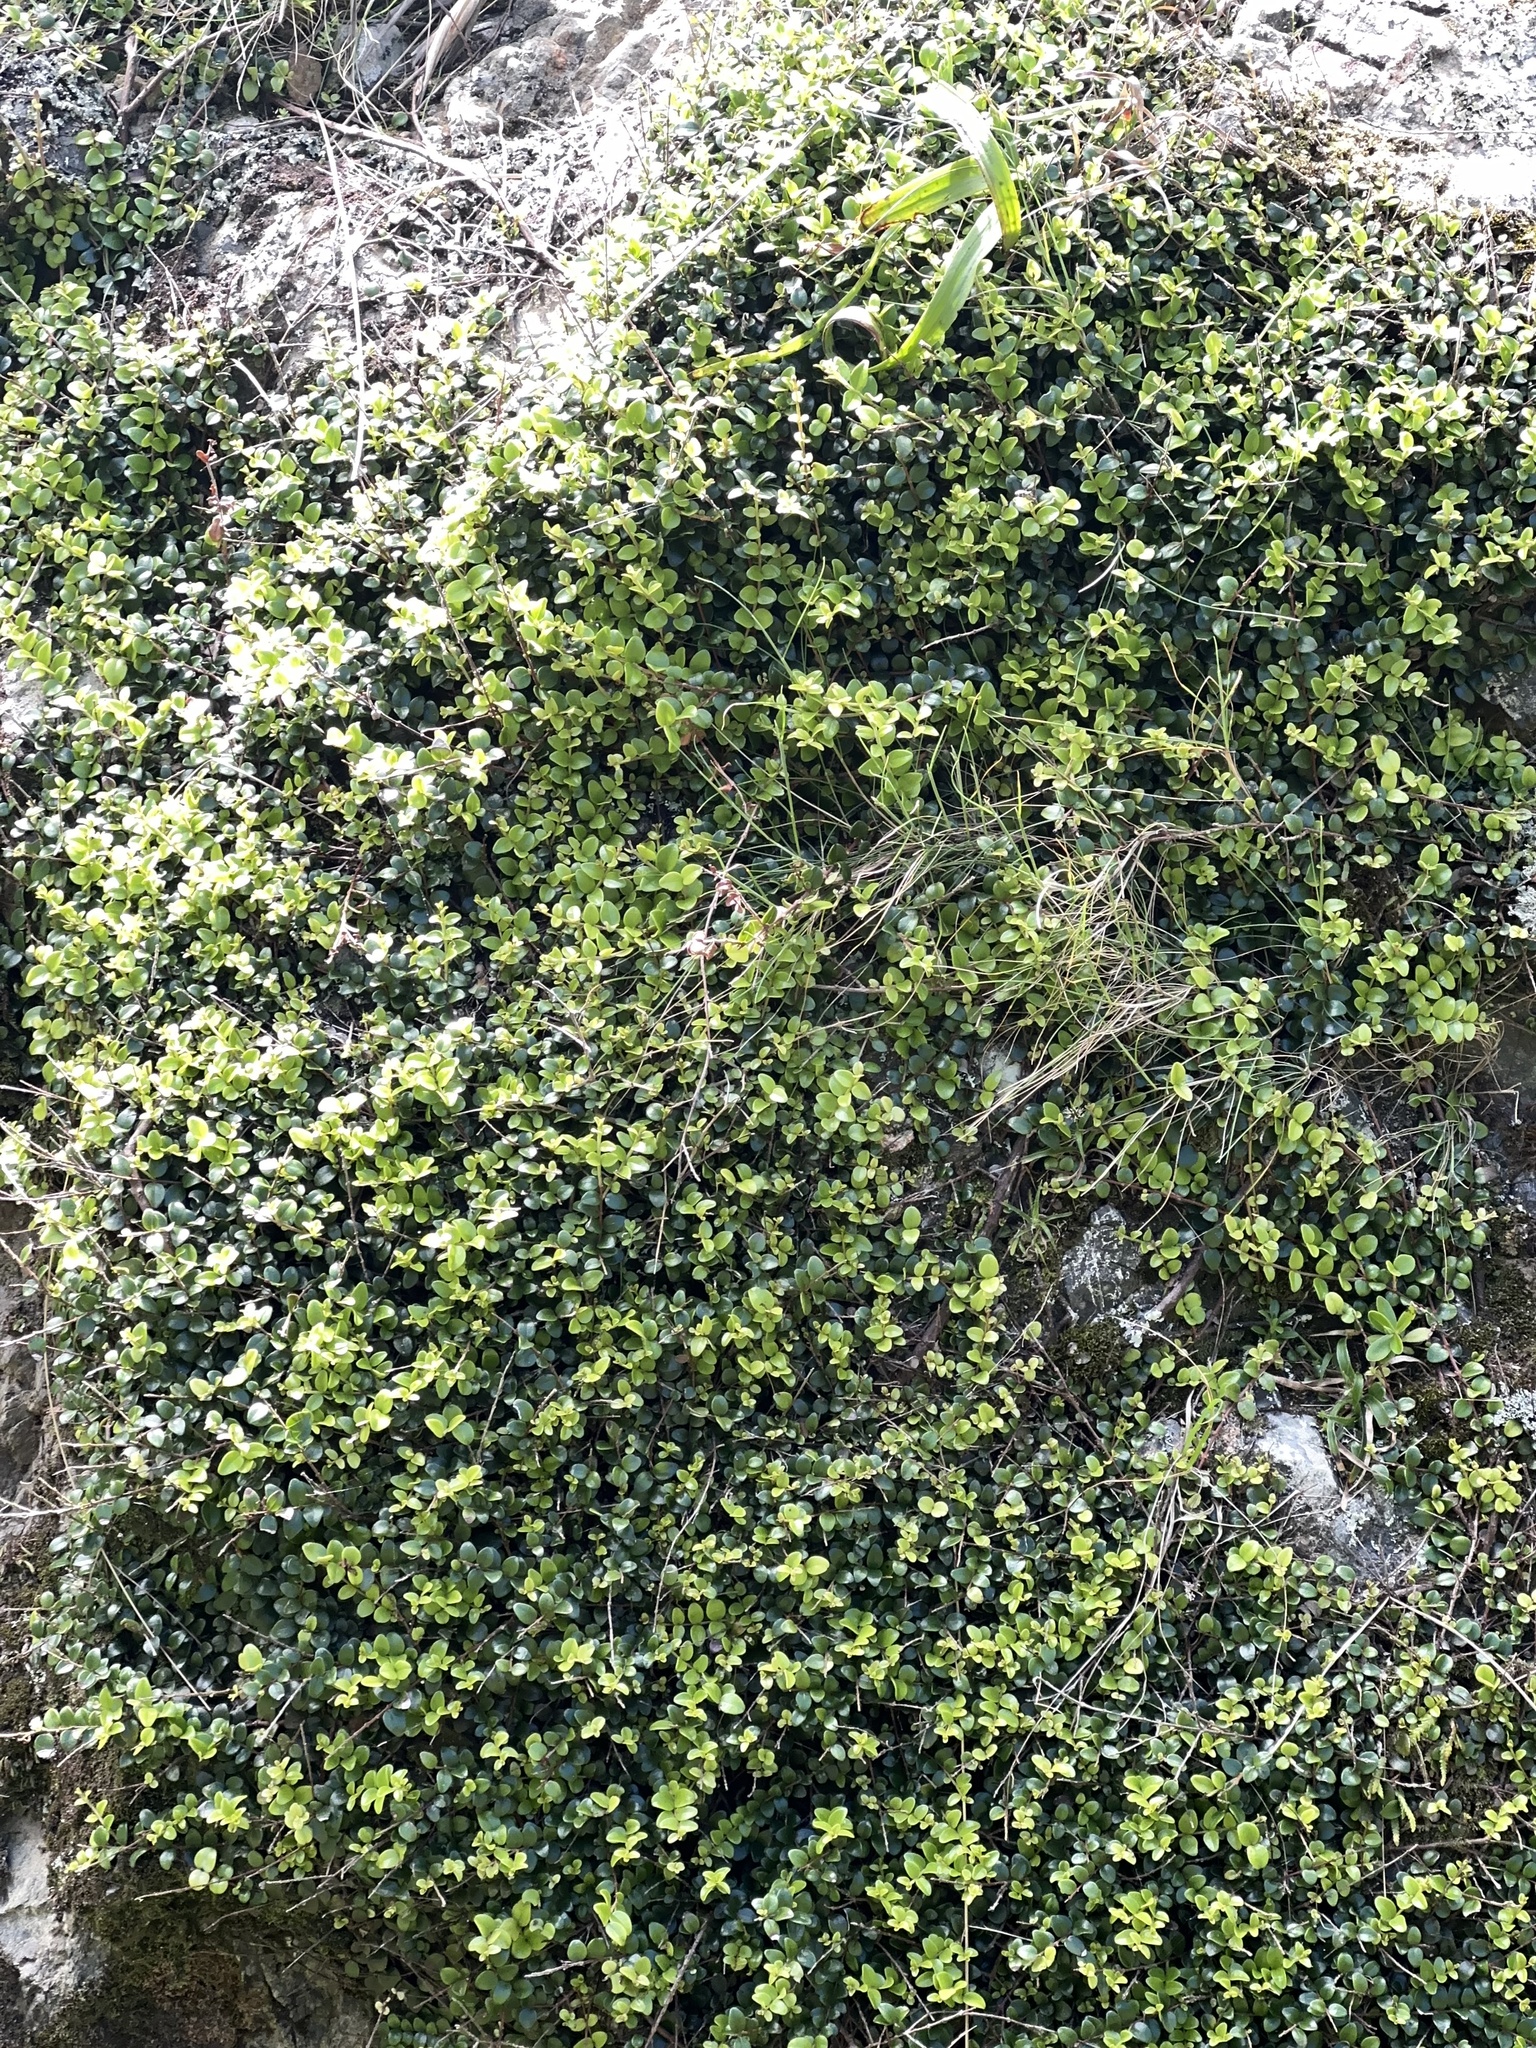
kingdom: Plantae
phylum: Tracheophyta
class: Magnoliopsida
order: Myrtales
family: Myrtaceae
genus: Metrosideros
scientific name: Metrosideros perforata
